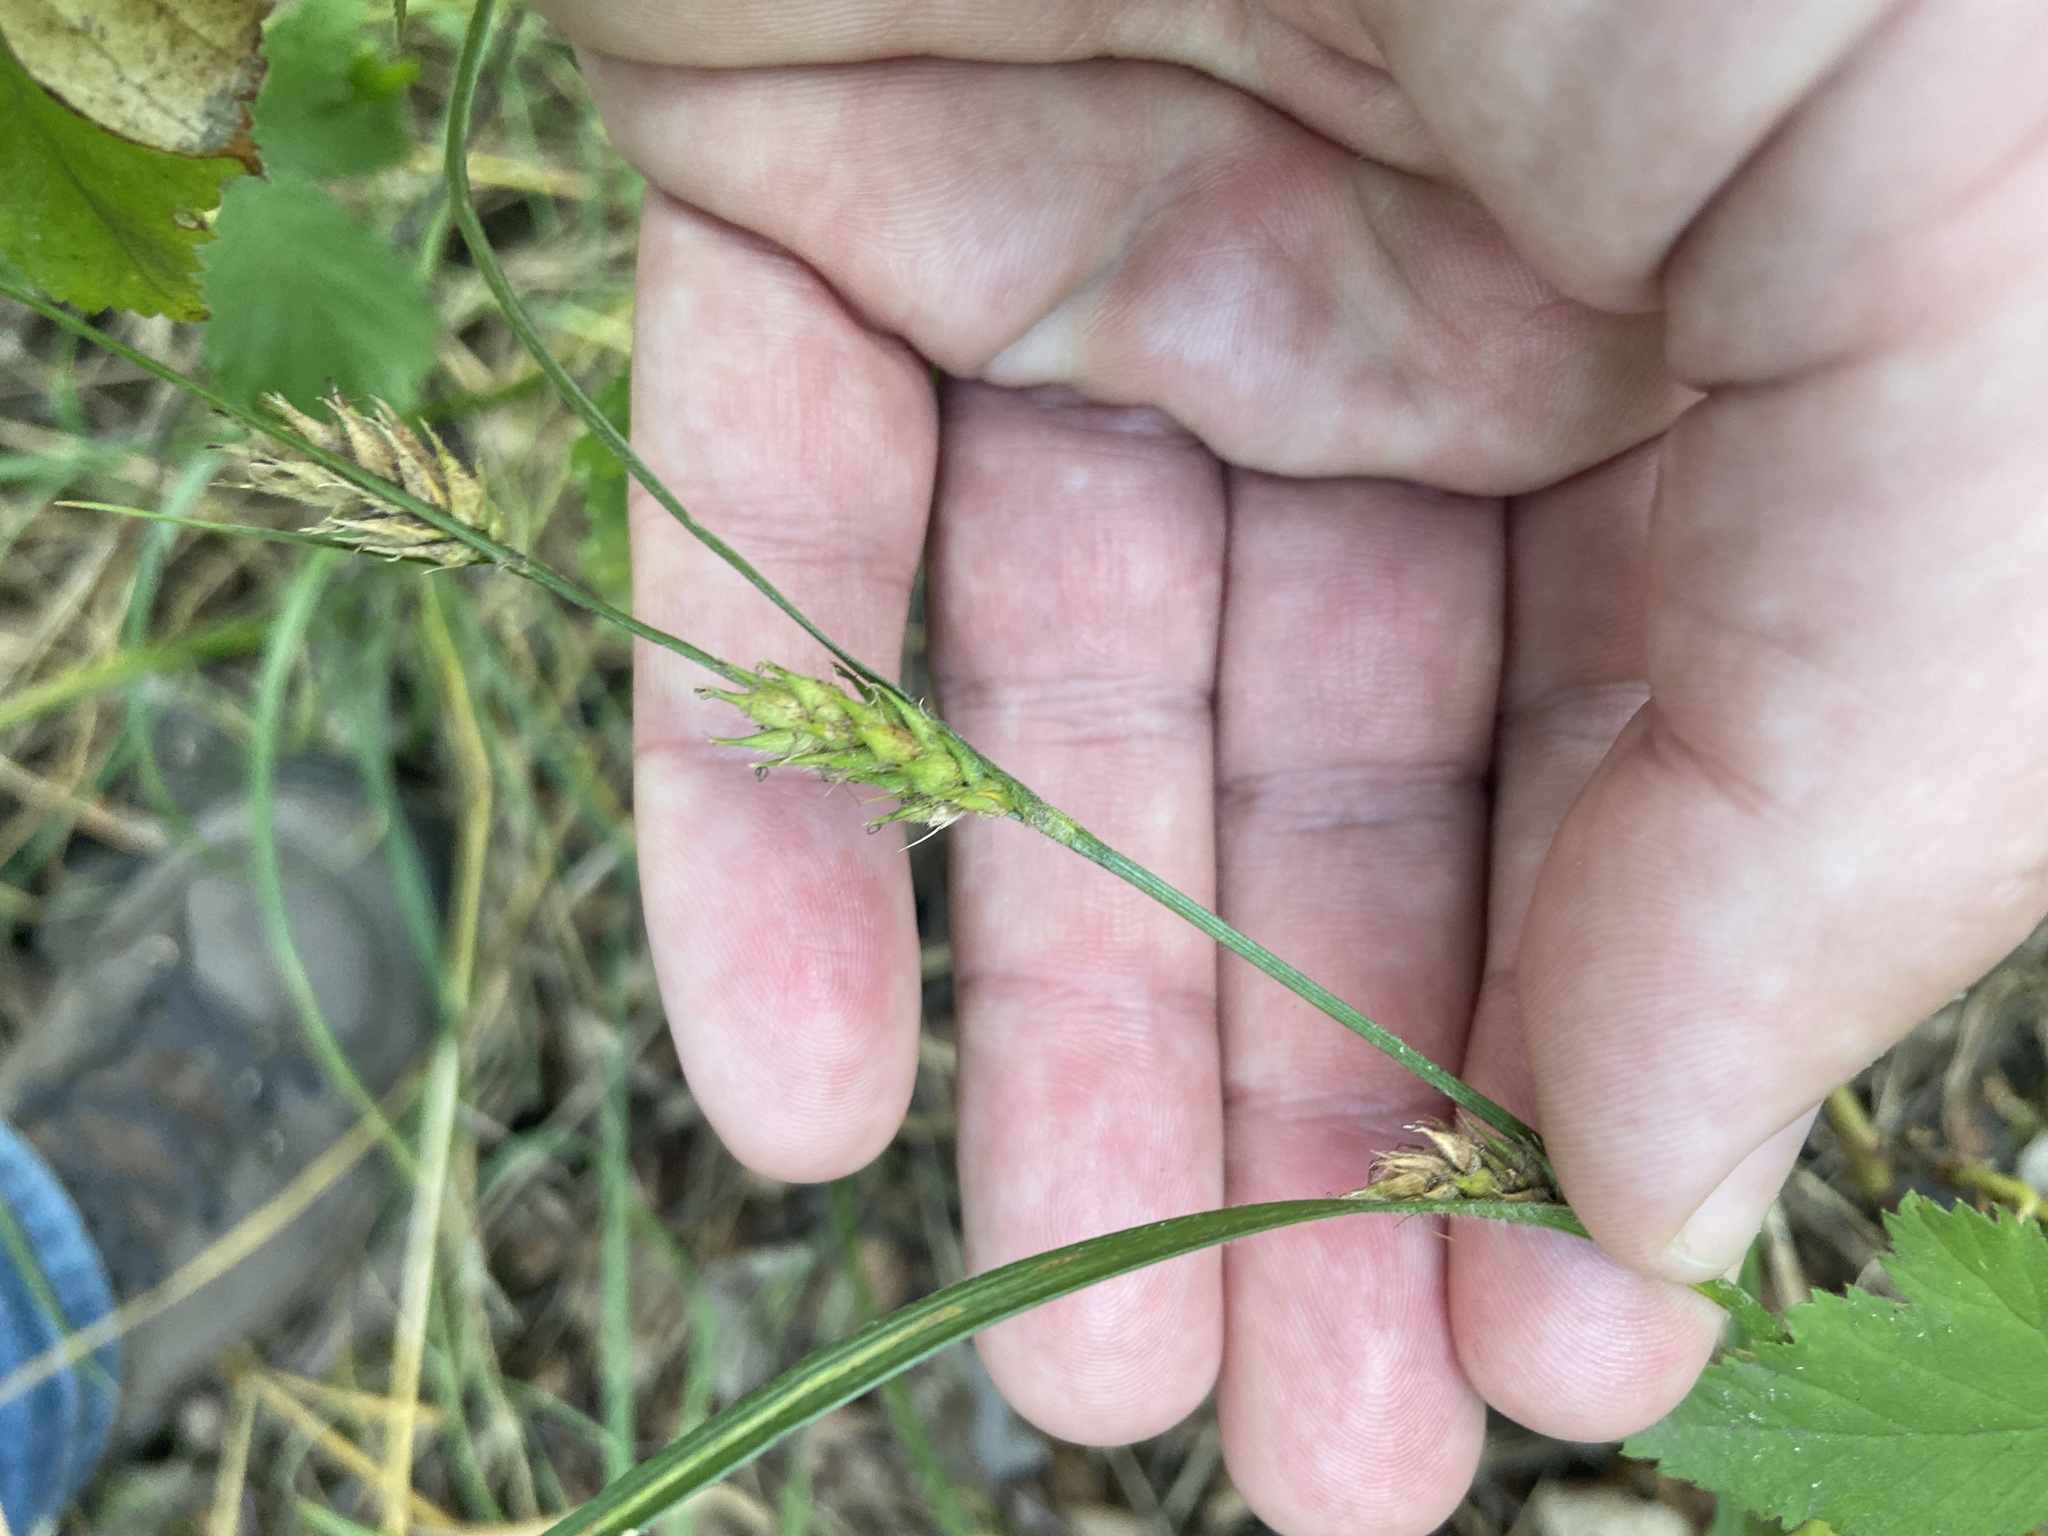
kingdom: Plantae
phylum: Tracheophyta
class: Liliopsida
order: Poales
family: Cyperaceae
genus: Carex
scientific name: Carex hirta
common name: Hairy sedge
